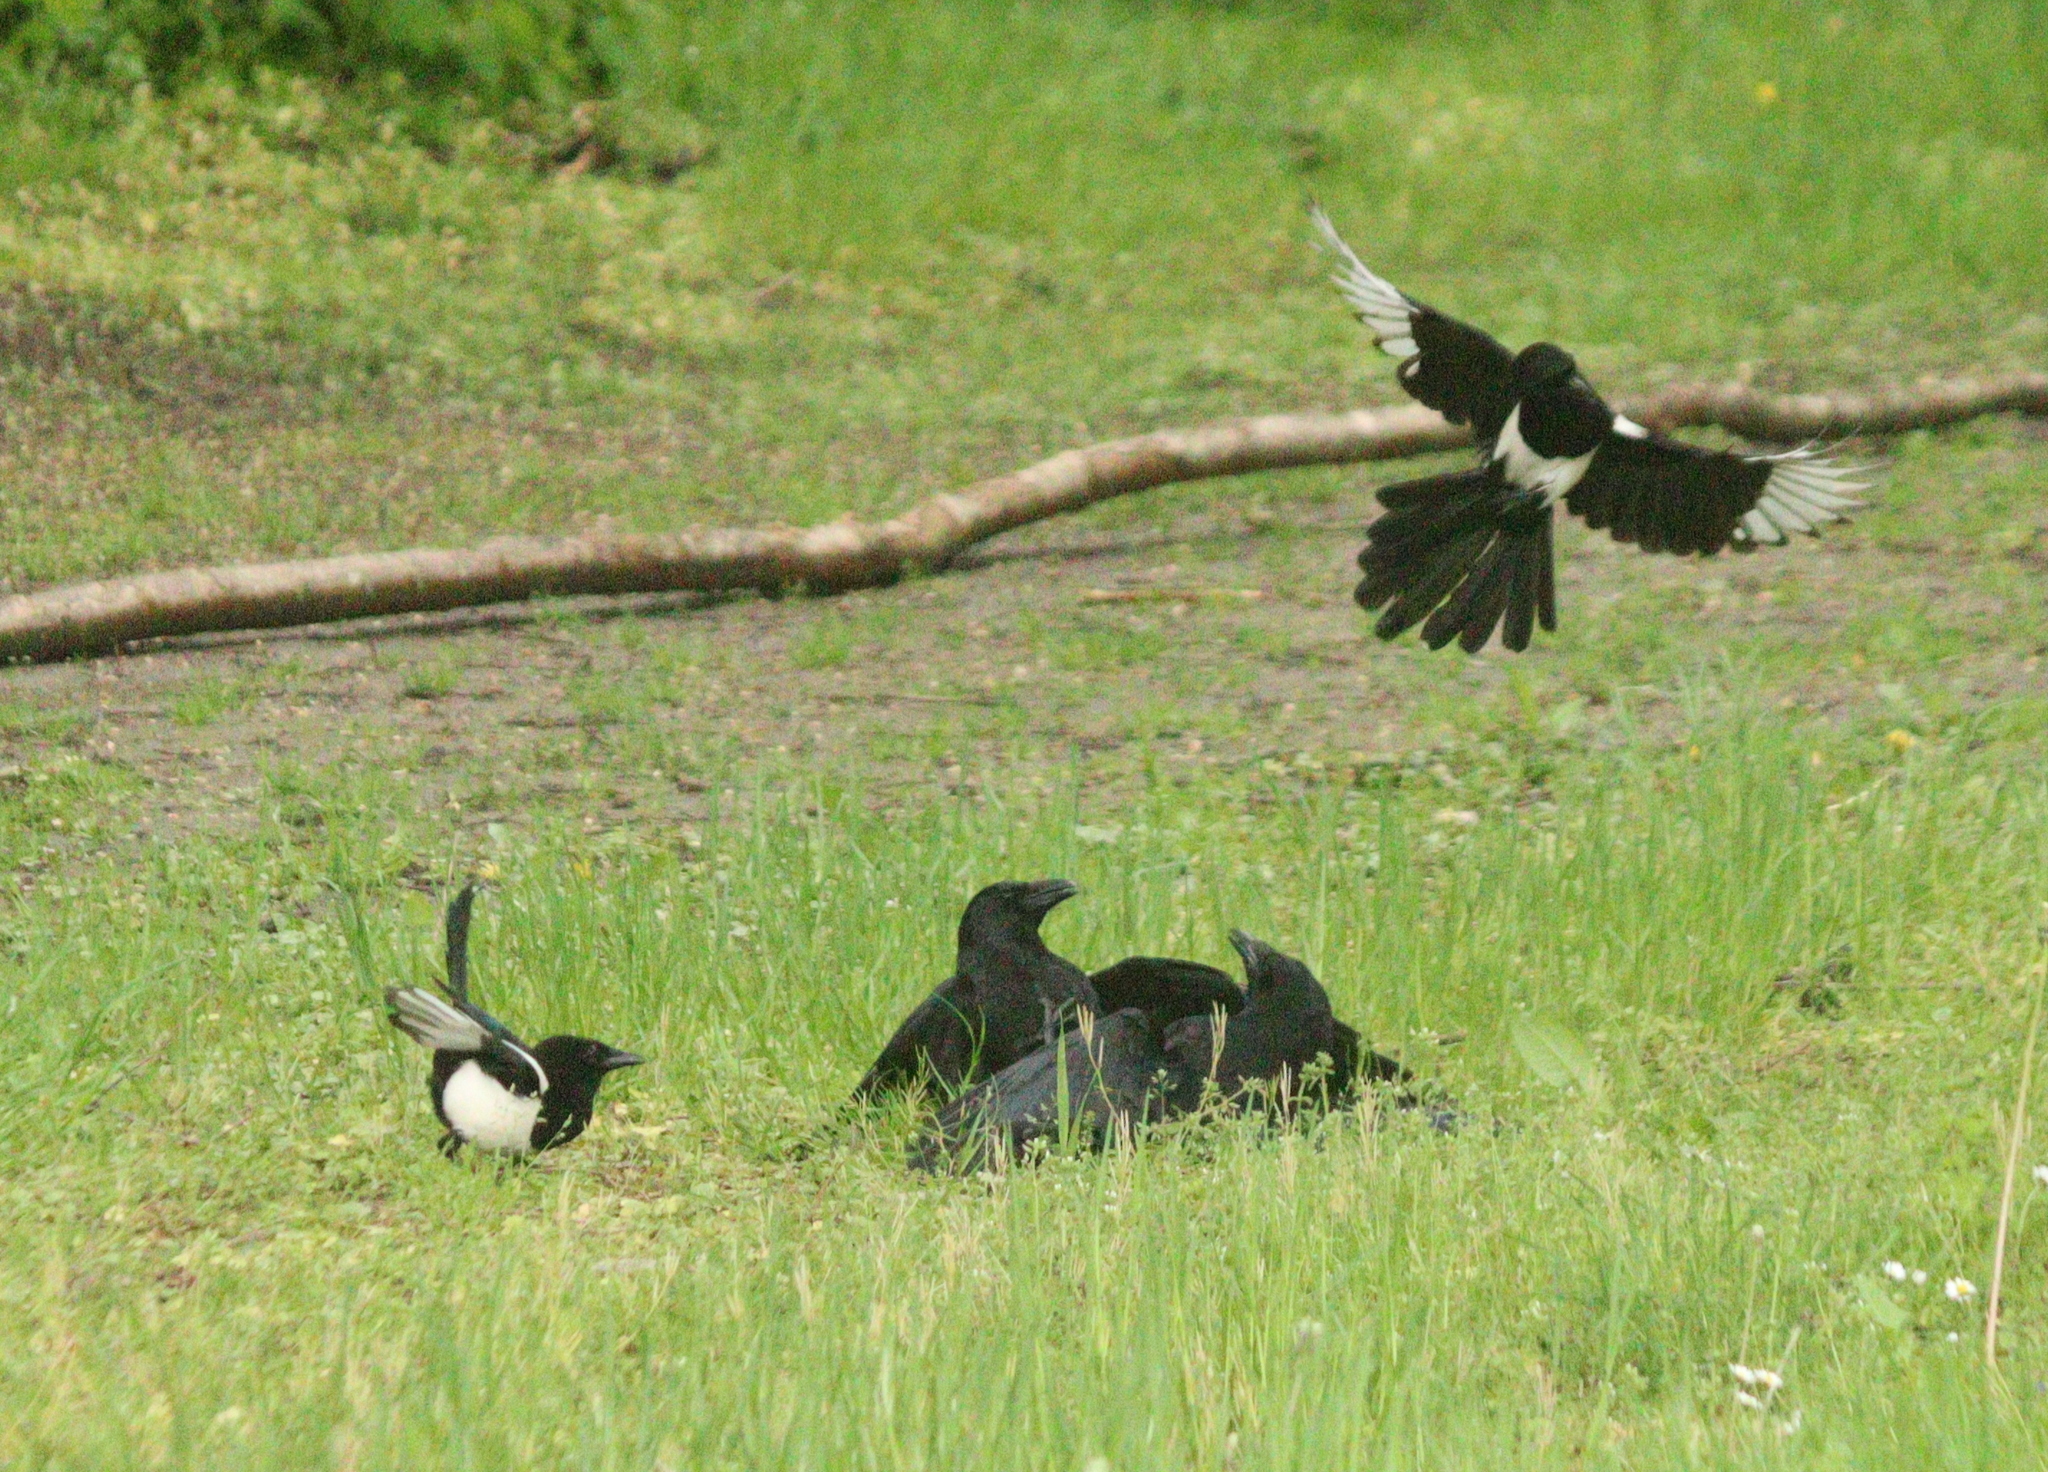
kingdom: Animalia
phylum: Chordata
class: Aves
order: Passeriformes
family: Corvidae
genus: Corvus
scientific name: Corvus corone
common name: Carrion crow
